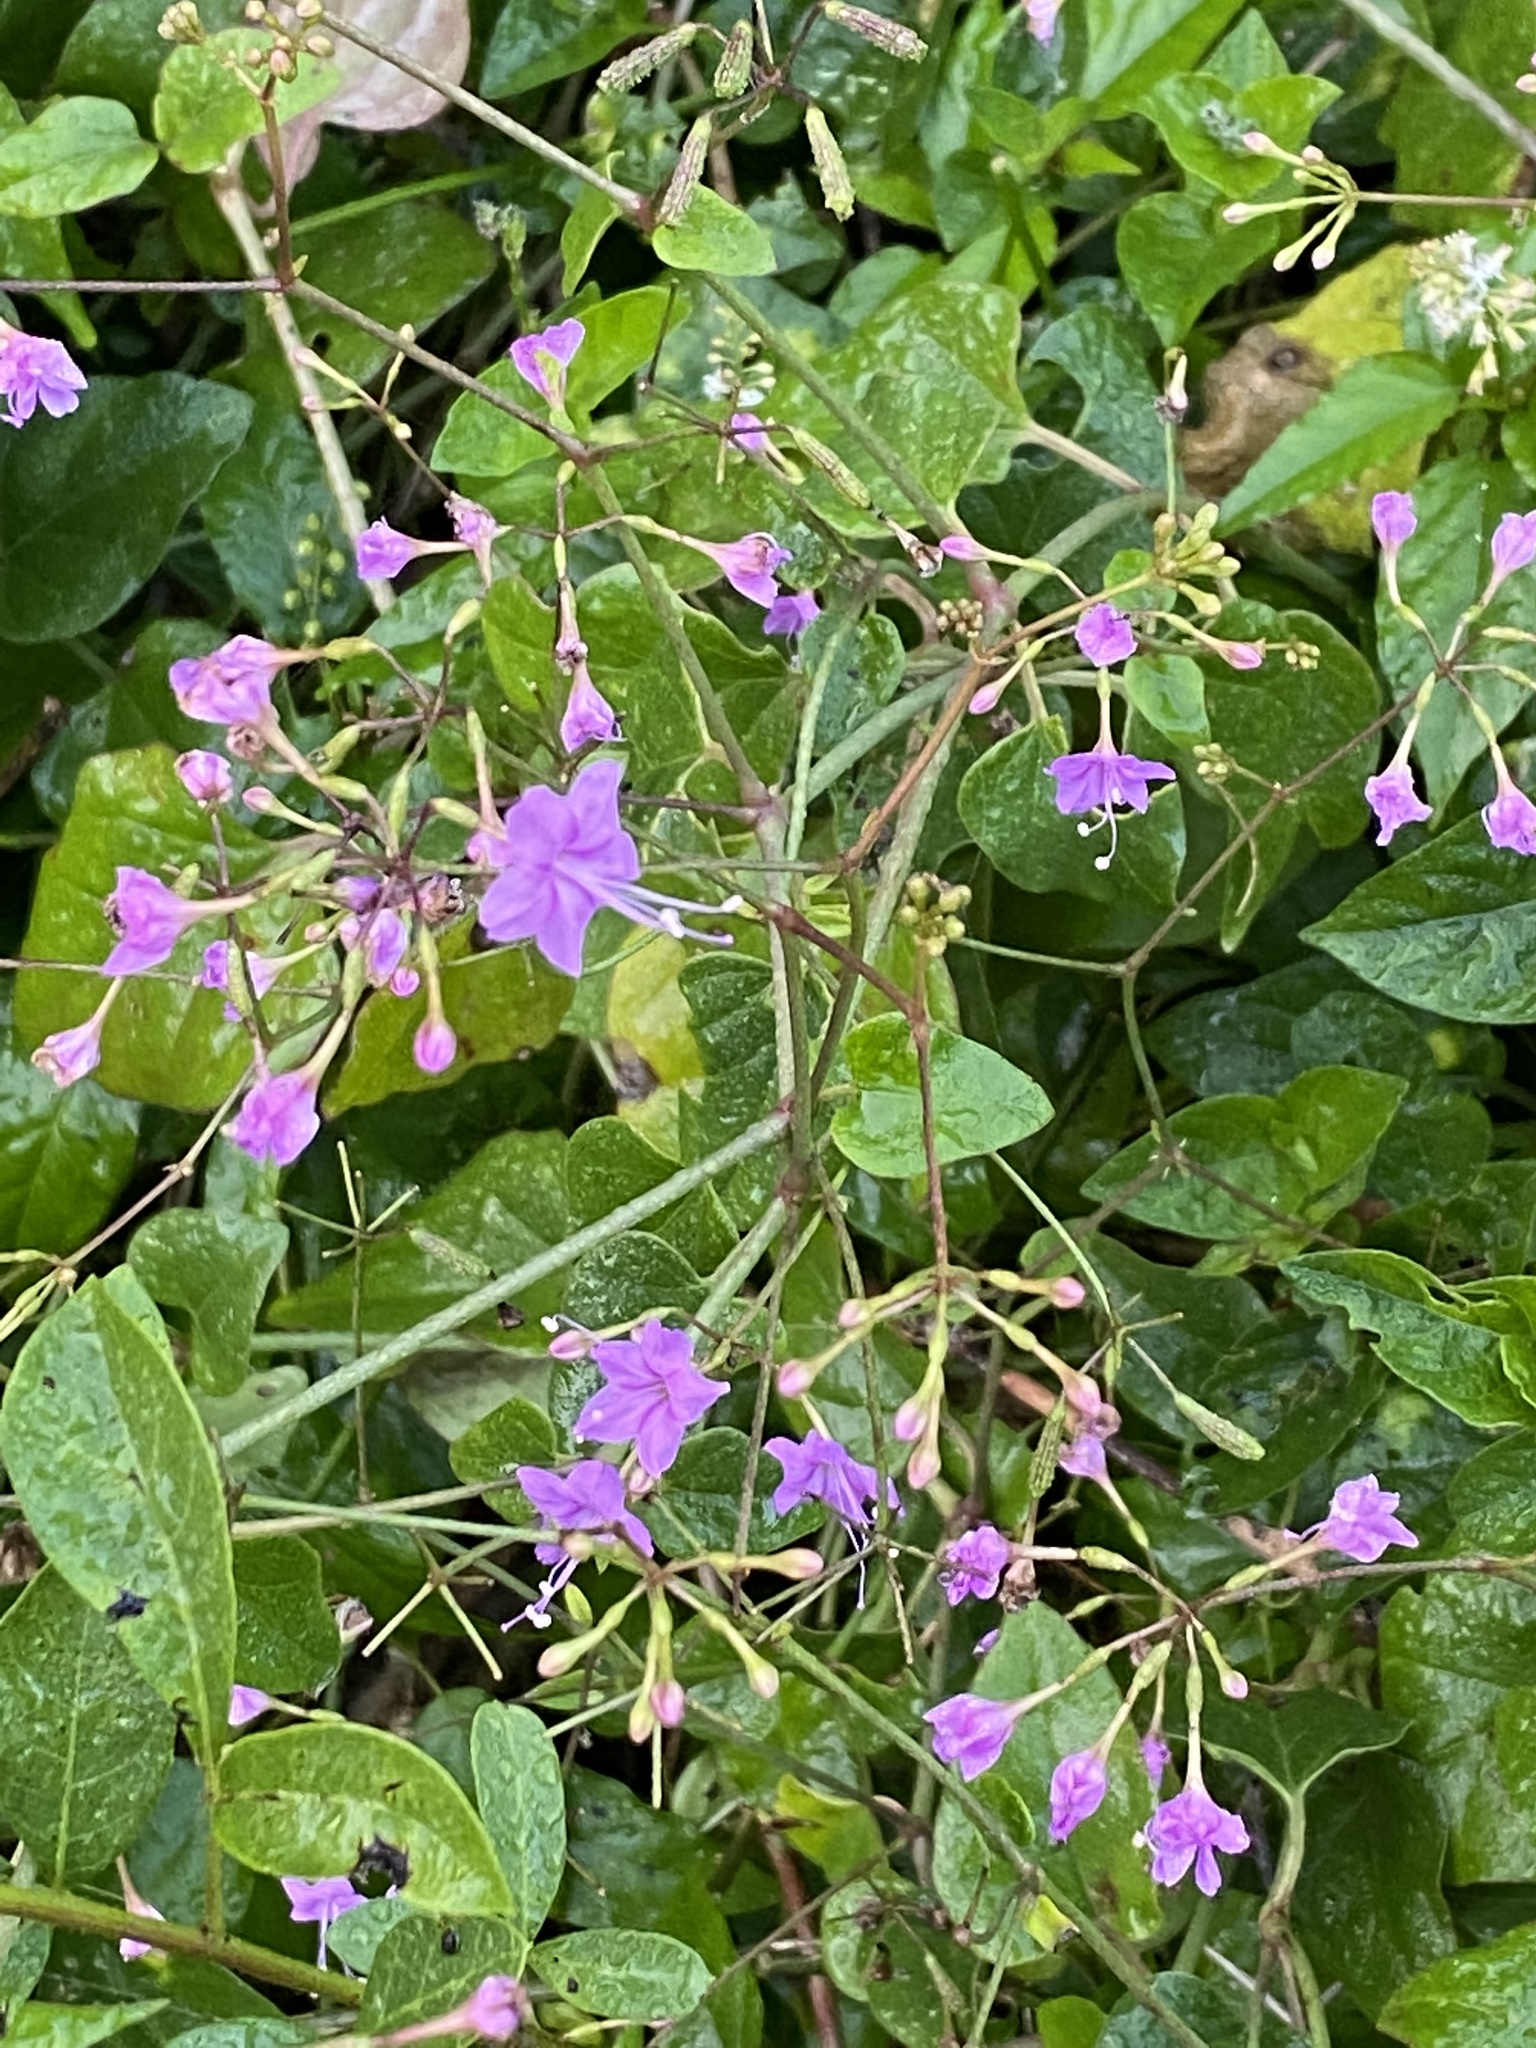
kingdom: Plantae
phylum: Tracheophyta
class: Magnoliopsida
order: Caryophyllales
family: Nyctaginaceae
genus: Commicarpus
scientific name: Commicarpus pentandrus
